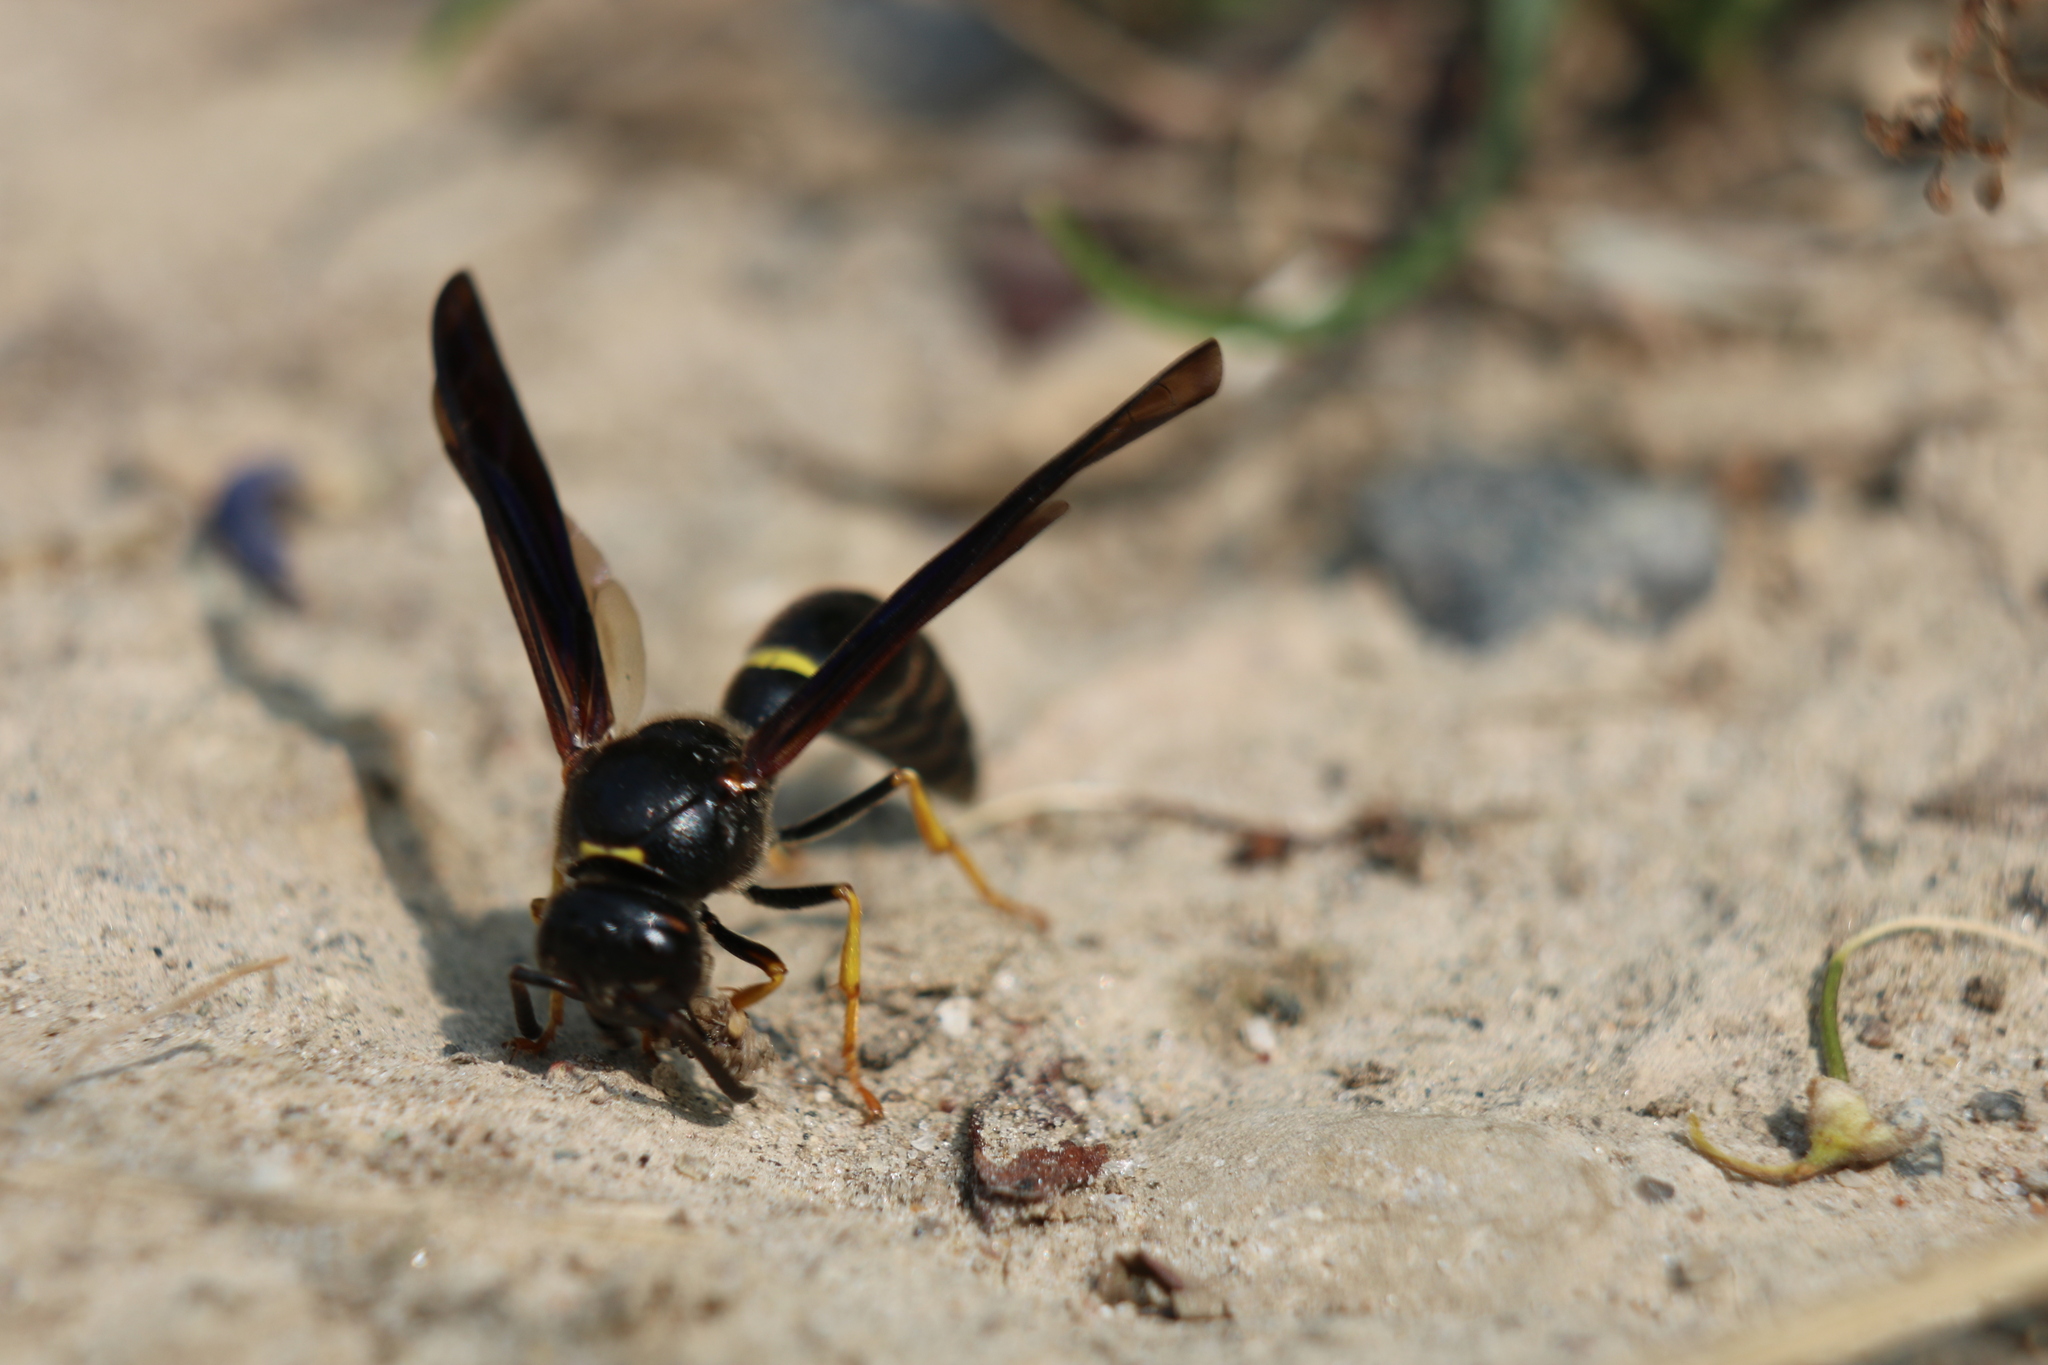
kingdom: Animalia
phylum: Arthropoda
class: Insecta
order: Hymenoptera
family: Eumenidae
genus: Parazumia
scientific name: Parazumia symmorpha
